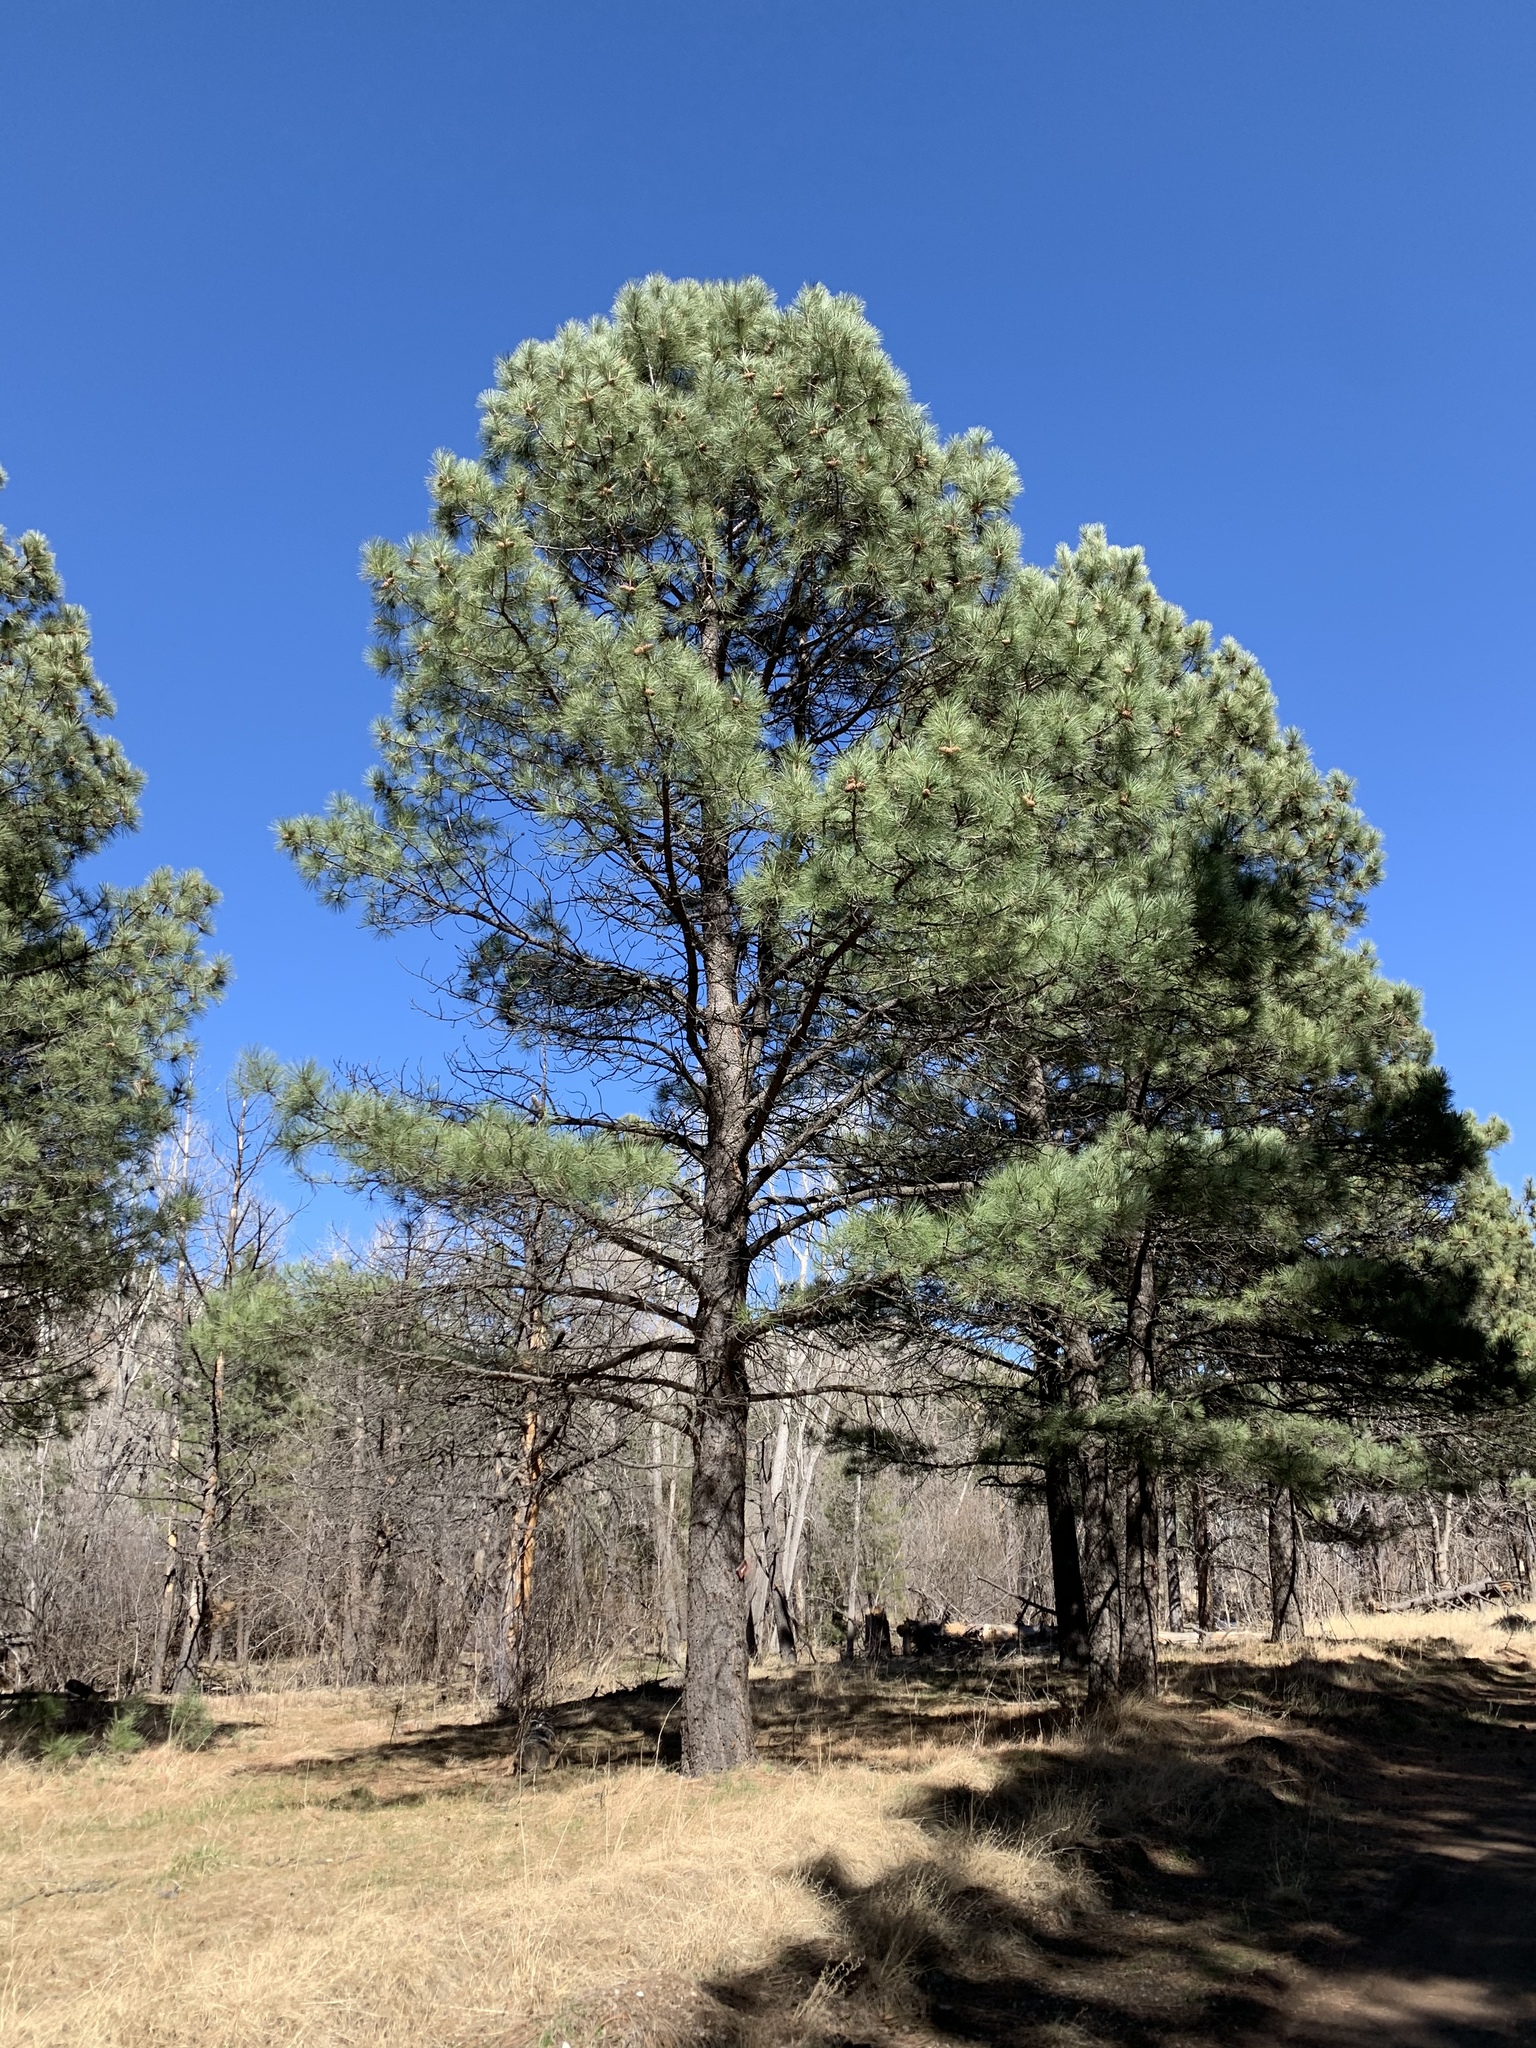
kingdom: Plantae
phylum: Tracheophyta
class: Pinopsida
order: Pinales
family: Pinaceae
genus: Pinus
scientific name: Pinus ponderosa
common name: Western yellow-pine
